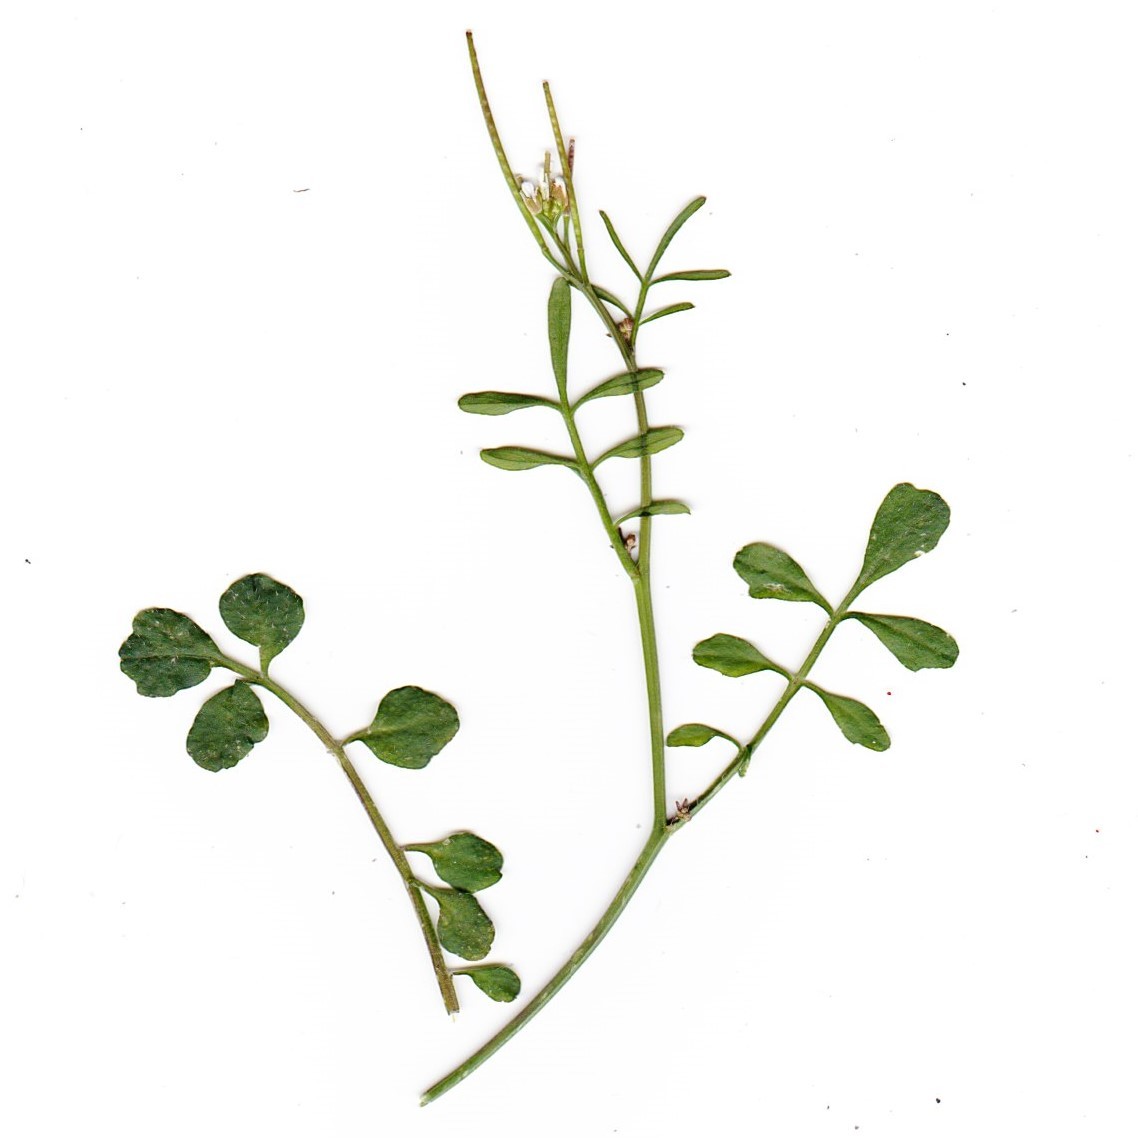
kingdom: Plantae
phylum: Tracheophyta
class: Magnoliopsida
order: Brassicales
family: Brassicaceae
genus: Cardamine
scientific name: Cardamine hirsuta
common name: Hairy bittercress
